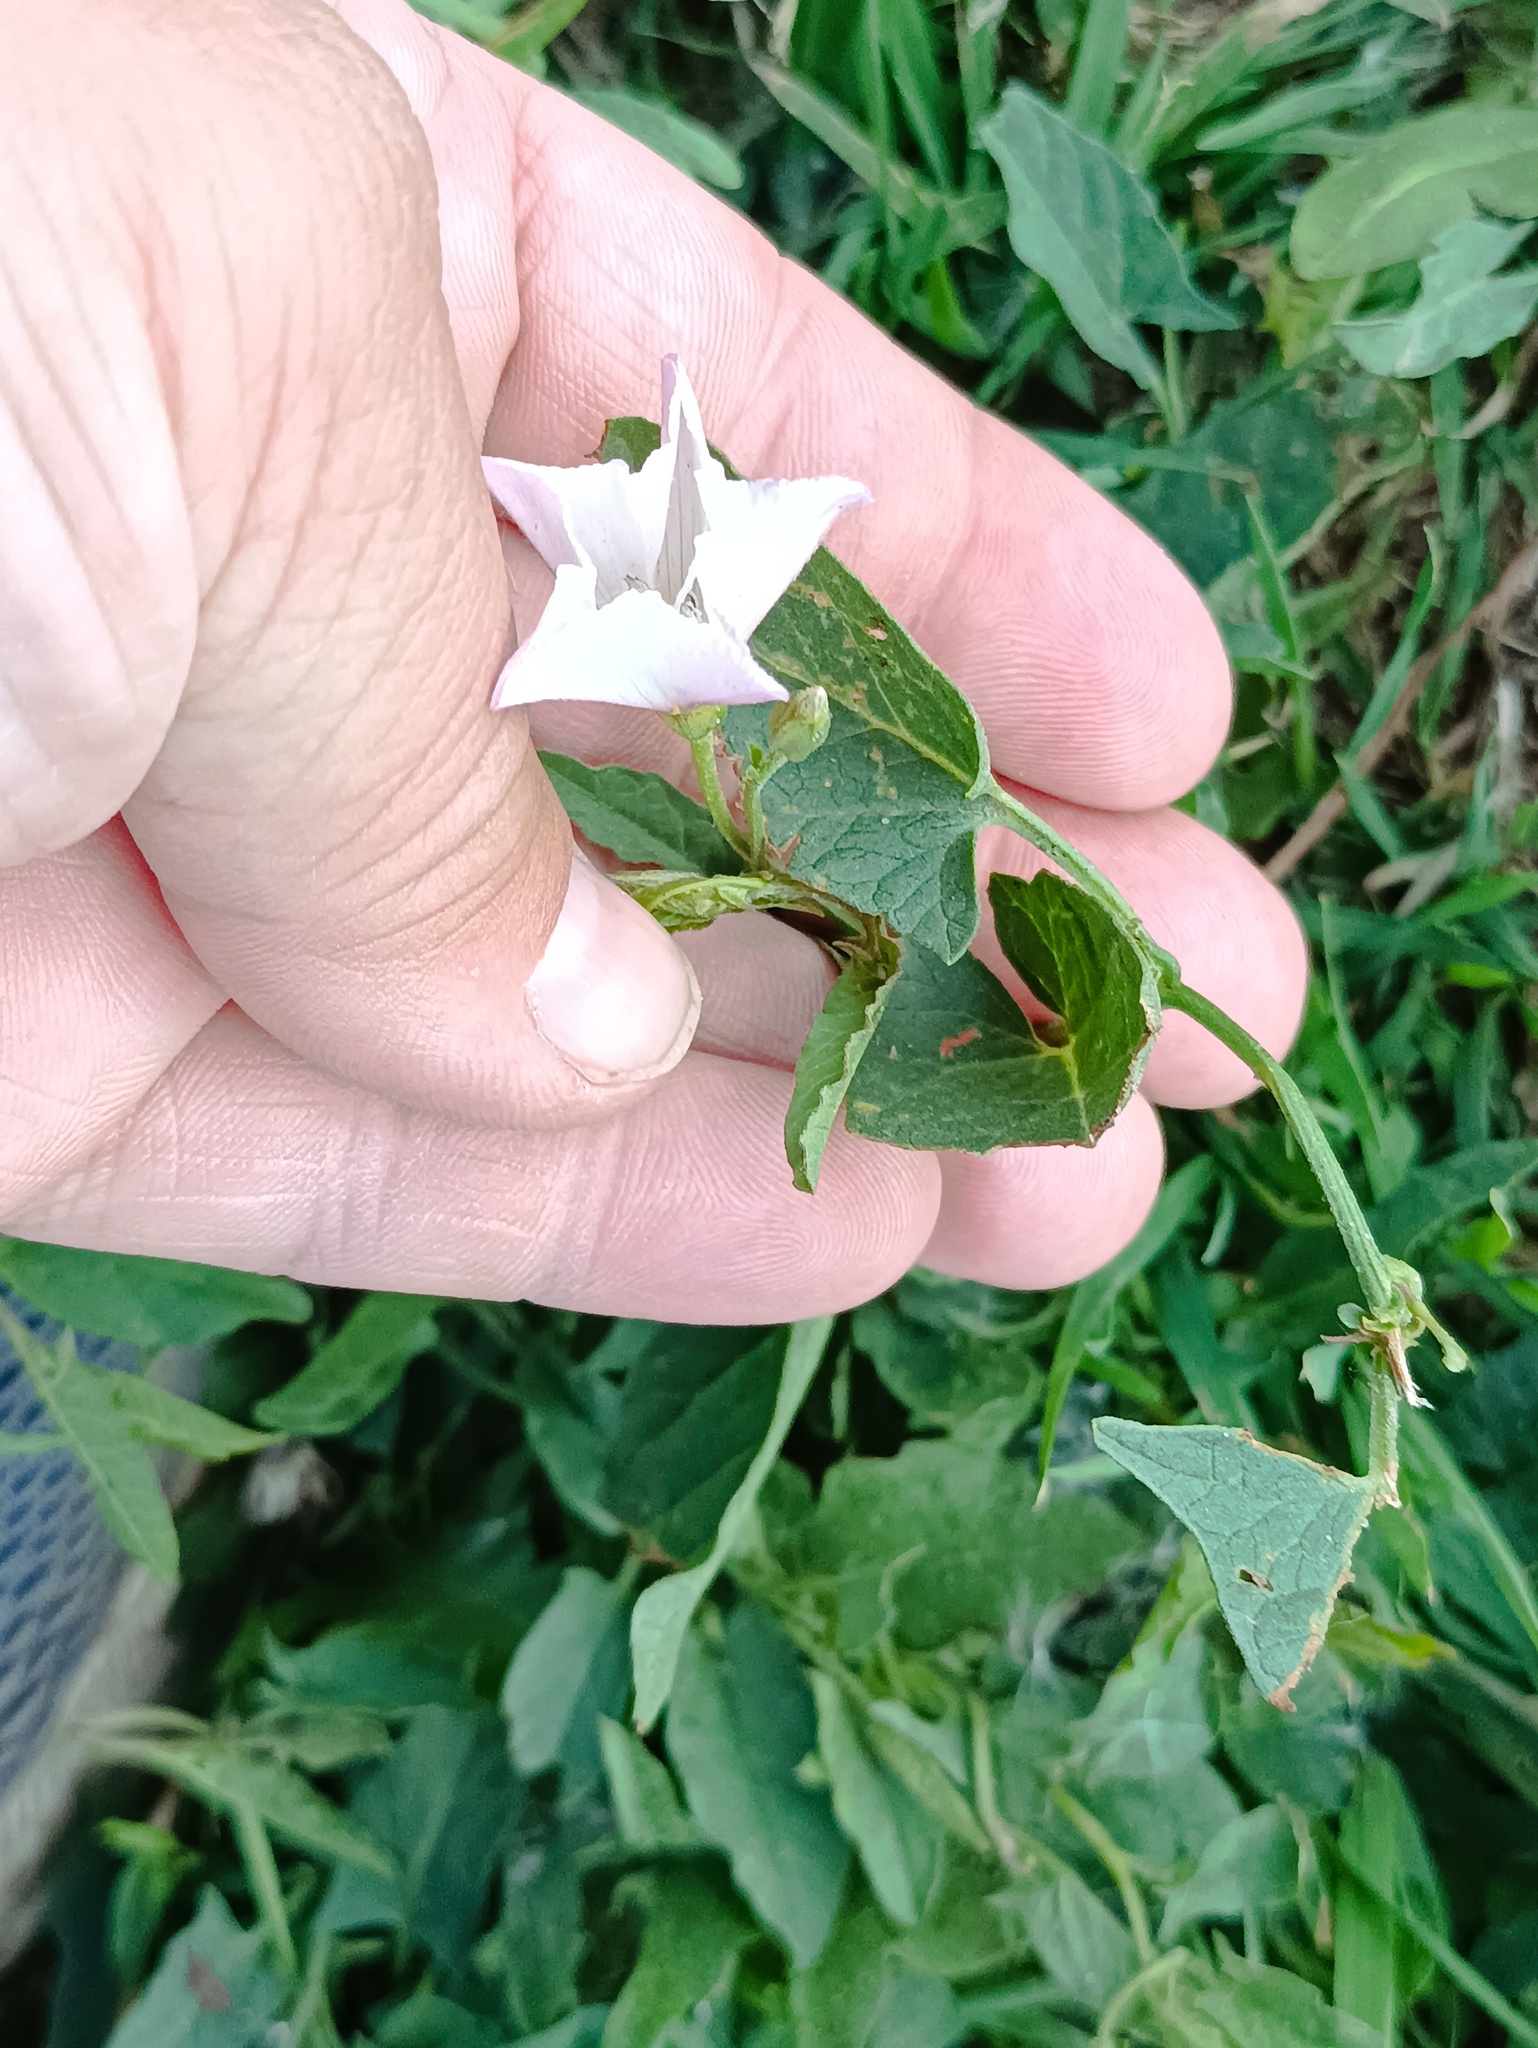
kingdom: Plantae
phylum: Tracheophyta
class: Magnoliopsida
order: Solanales
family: Convolvulaceae
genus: Convolvulus
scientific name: Convolvulus arvensis
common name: Field bindweed
